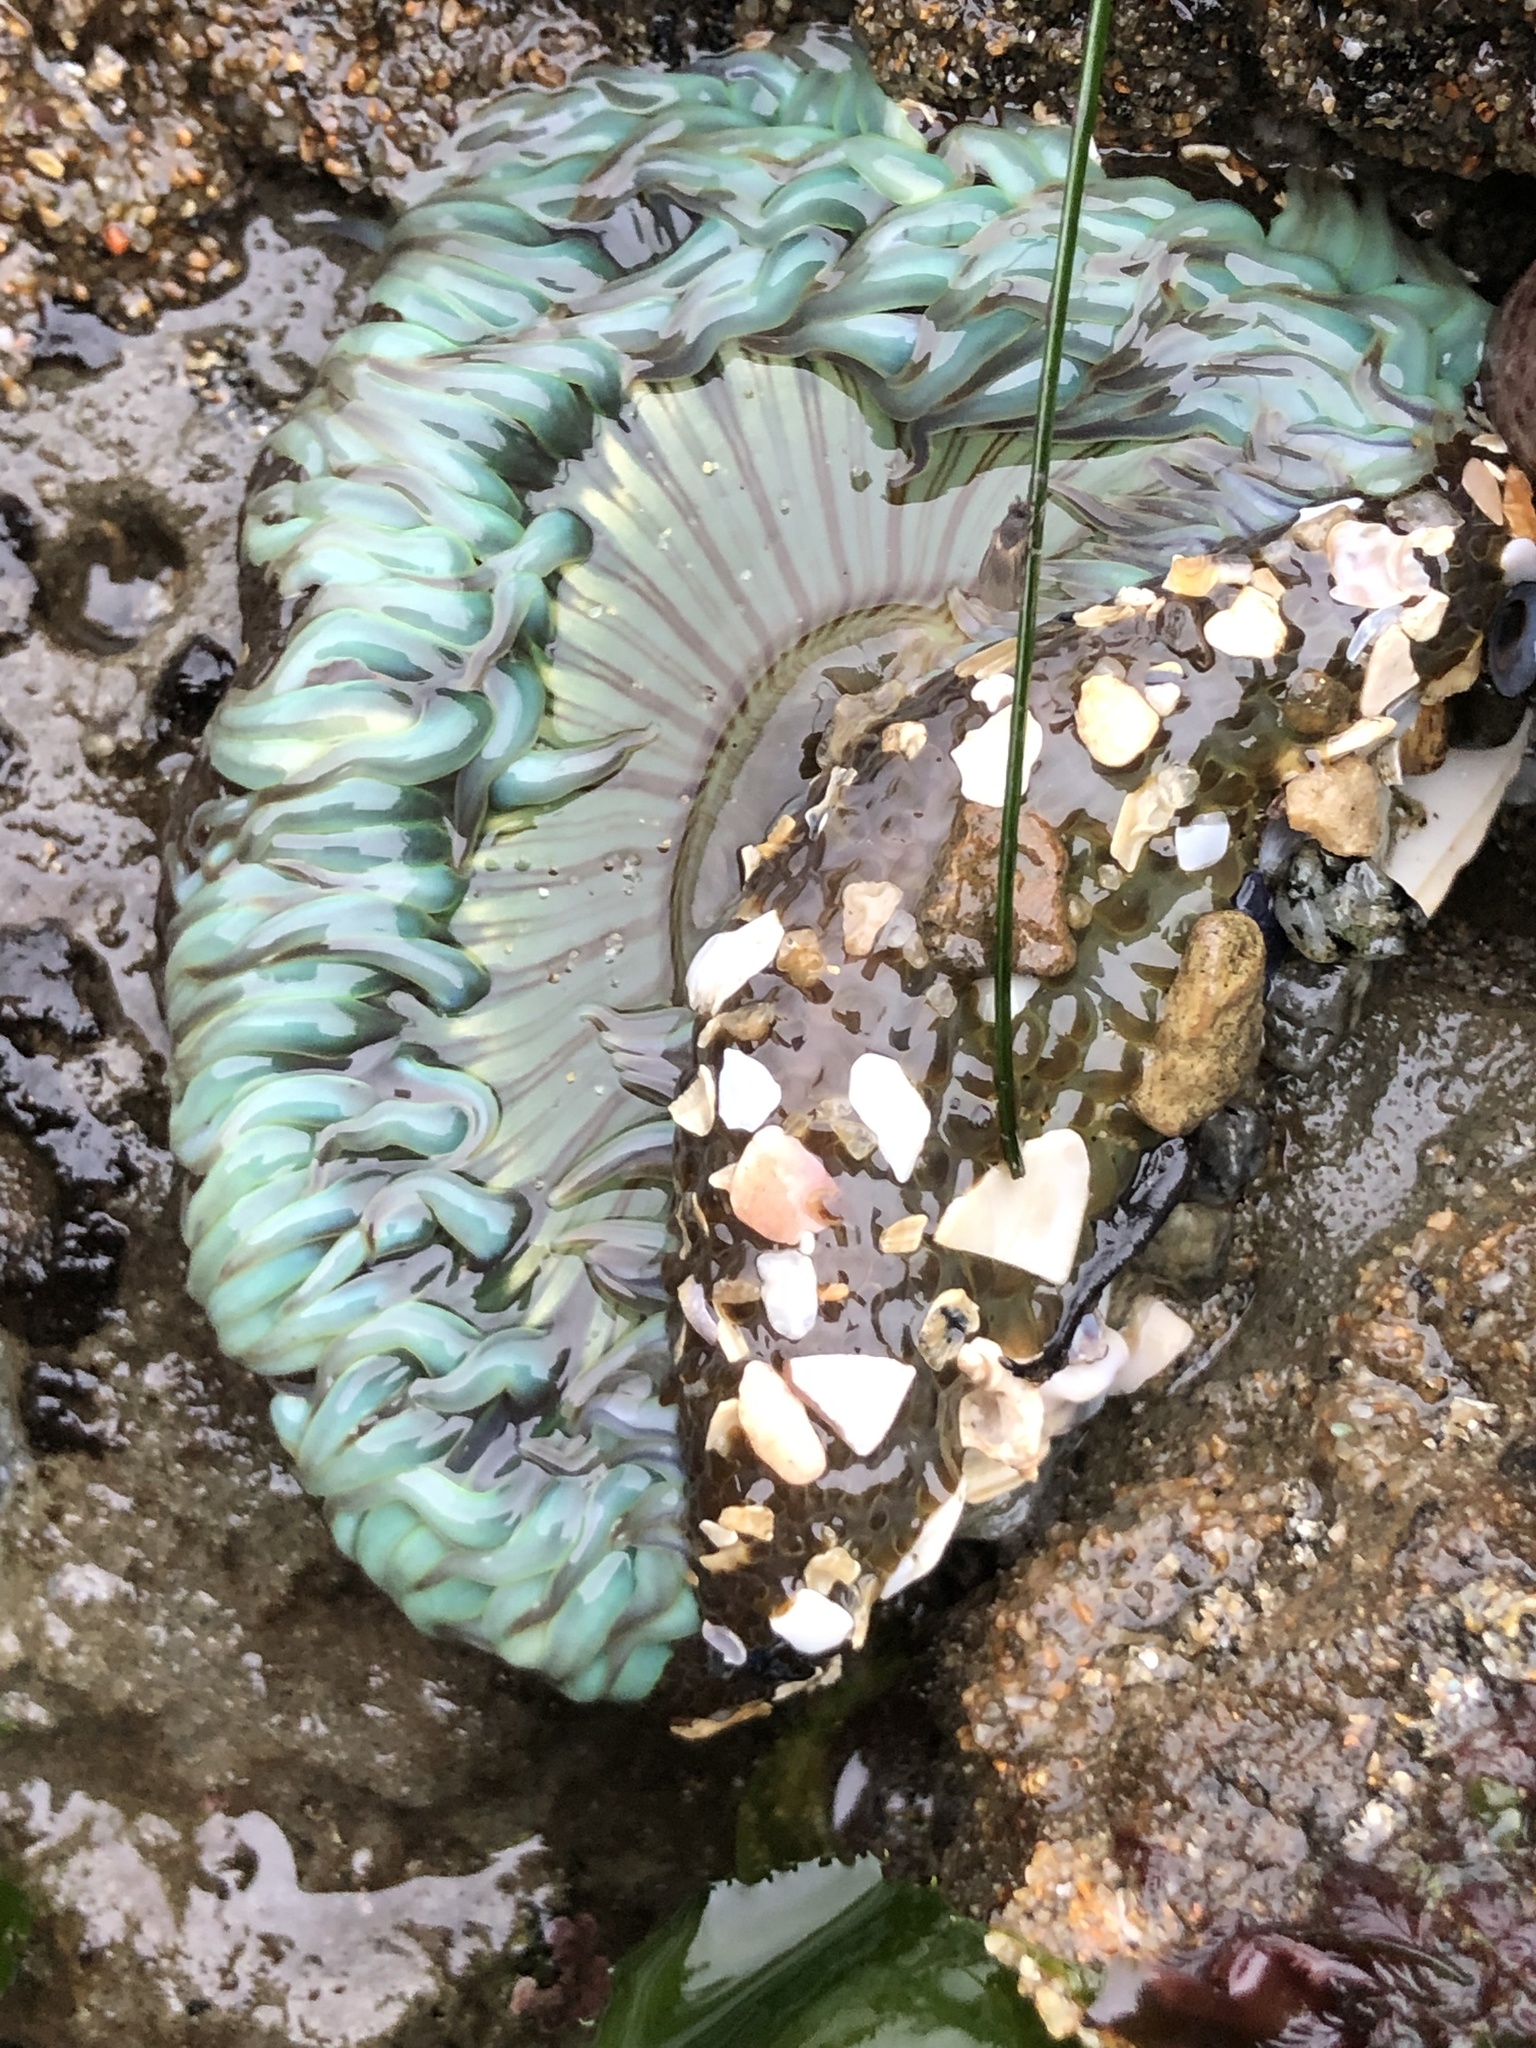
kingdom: Animalia
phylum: Cnidaria
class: Anthozoa
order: Actiniaria
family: Actiniidae
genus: Anthopleura
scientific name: Anthopleura sola
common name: Sun anemone
